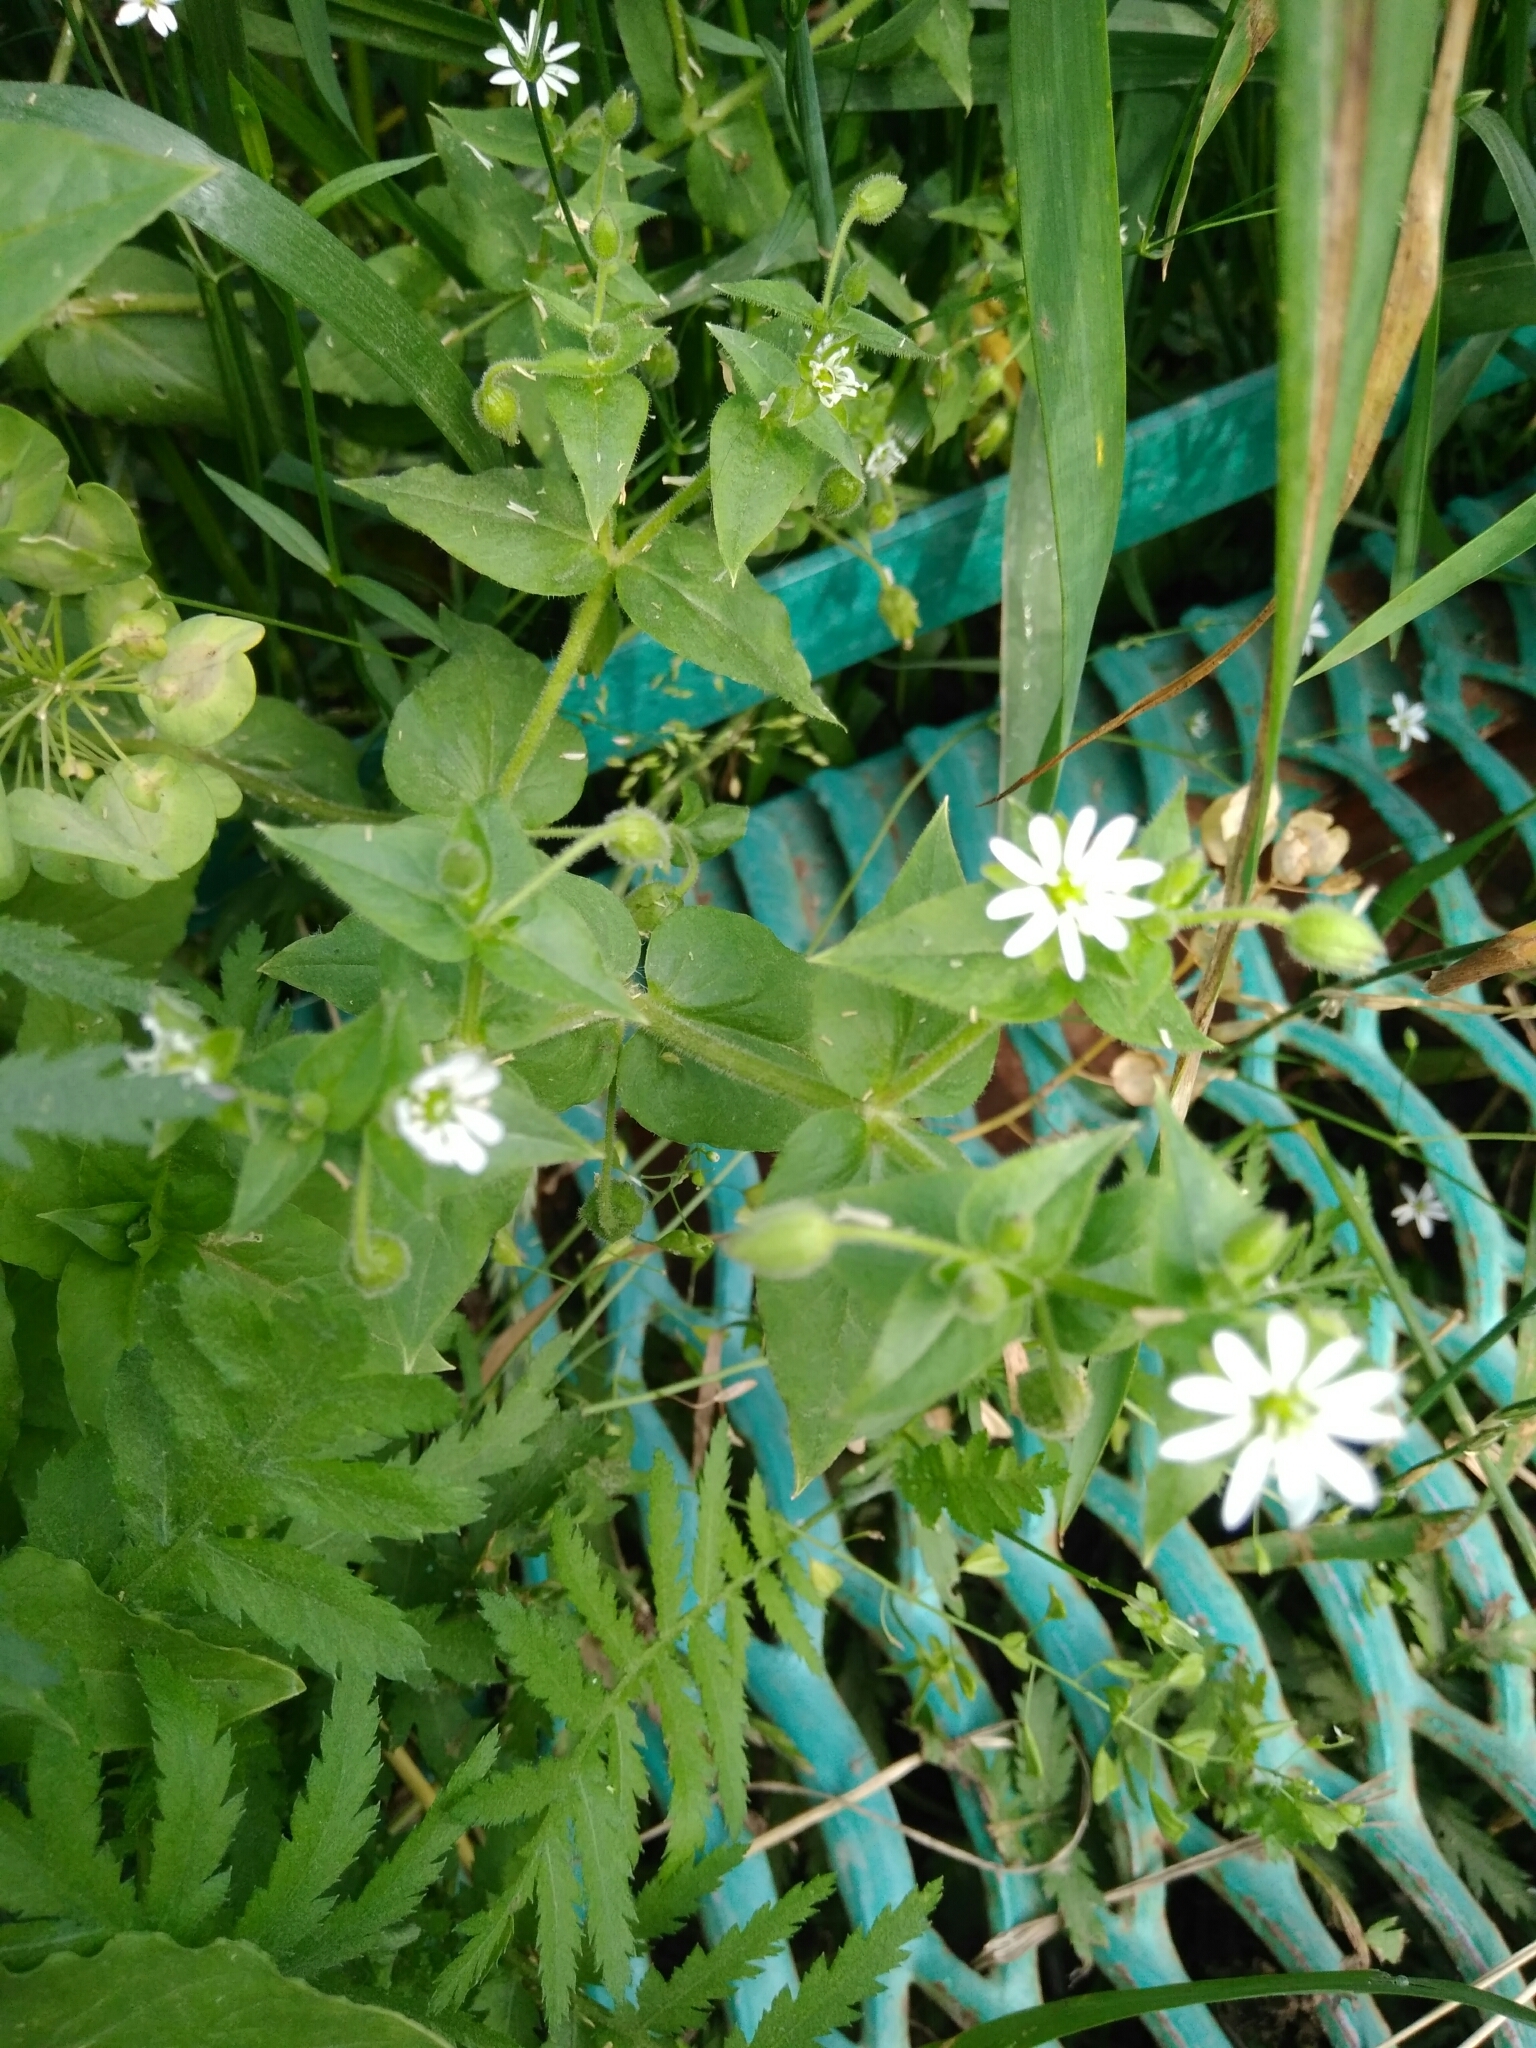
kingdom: Plantae
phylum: Tracheophyta
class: Magnoliopsida
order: Caryophyllales
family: Caryophyllaceae
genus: Stellaria
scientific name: Stellaria aquatica
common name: Water chickweed
